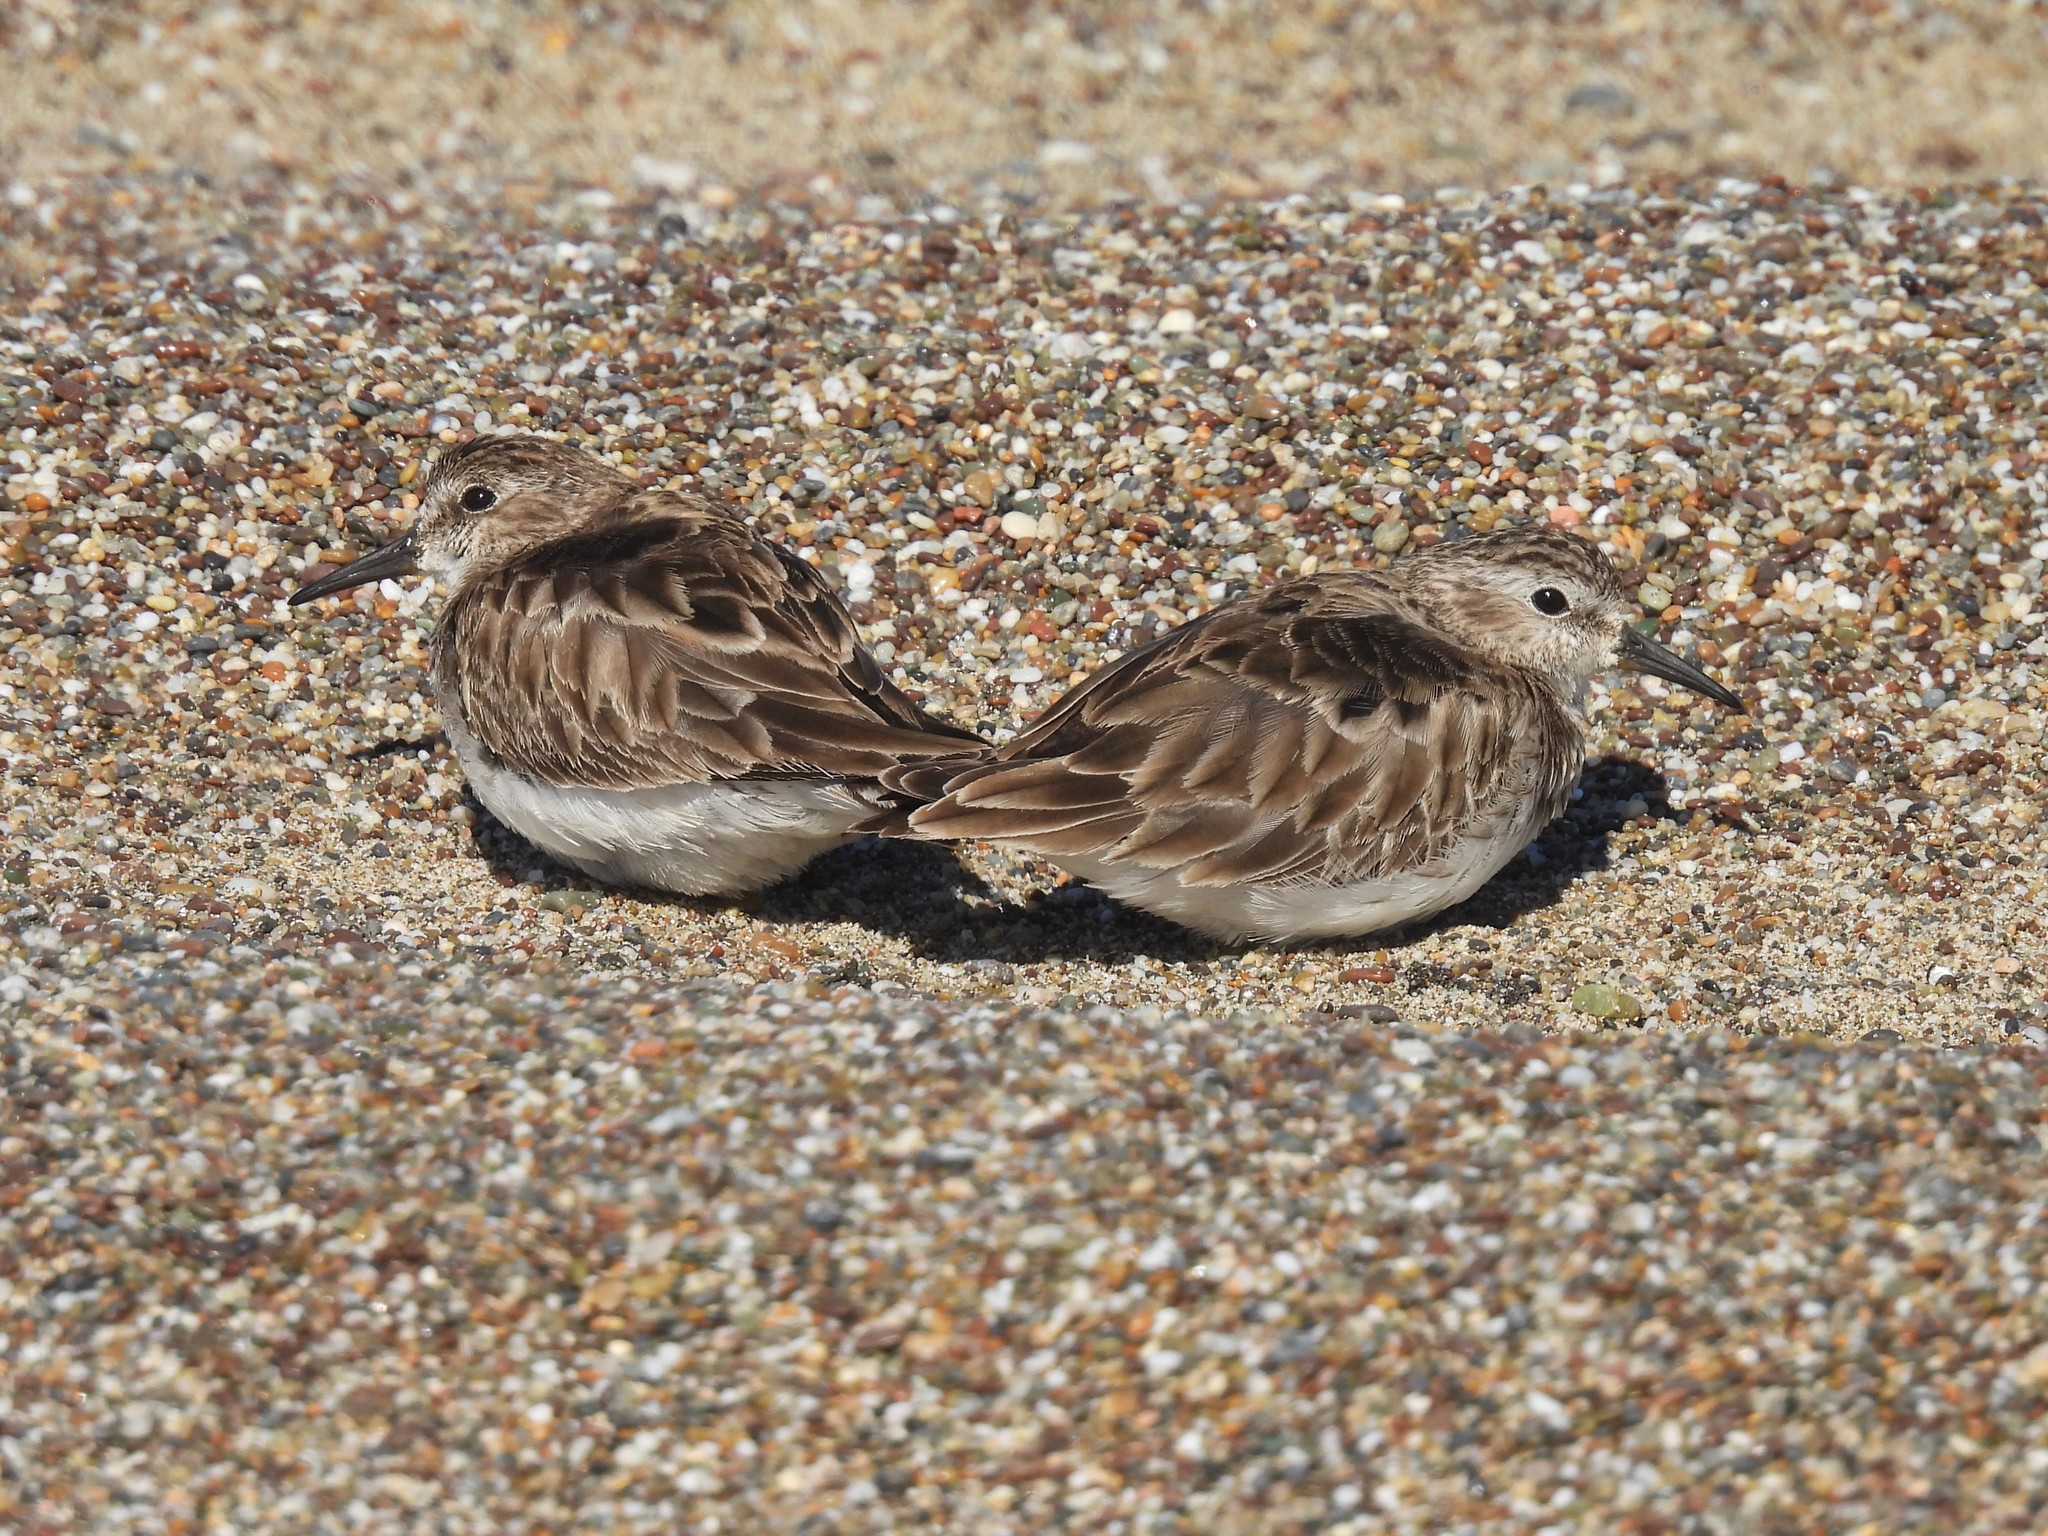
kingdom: Animalia
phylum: Chordata
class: Aves
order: Charadriiformes
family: Scolopacidae
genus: Calidris
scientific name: Calidris minutilla
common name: Least sandpiper
